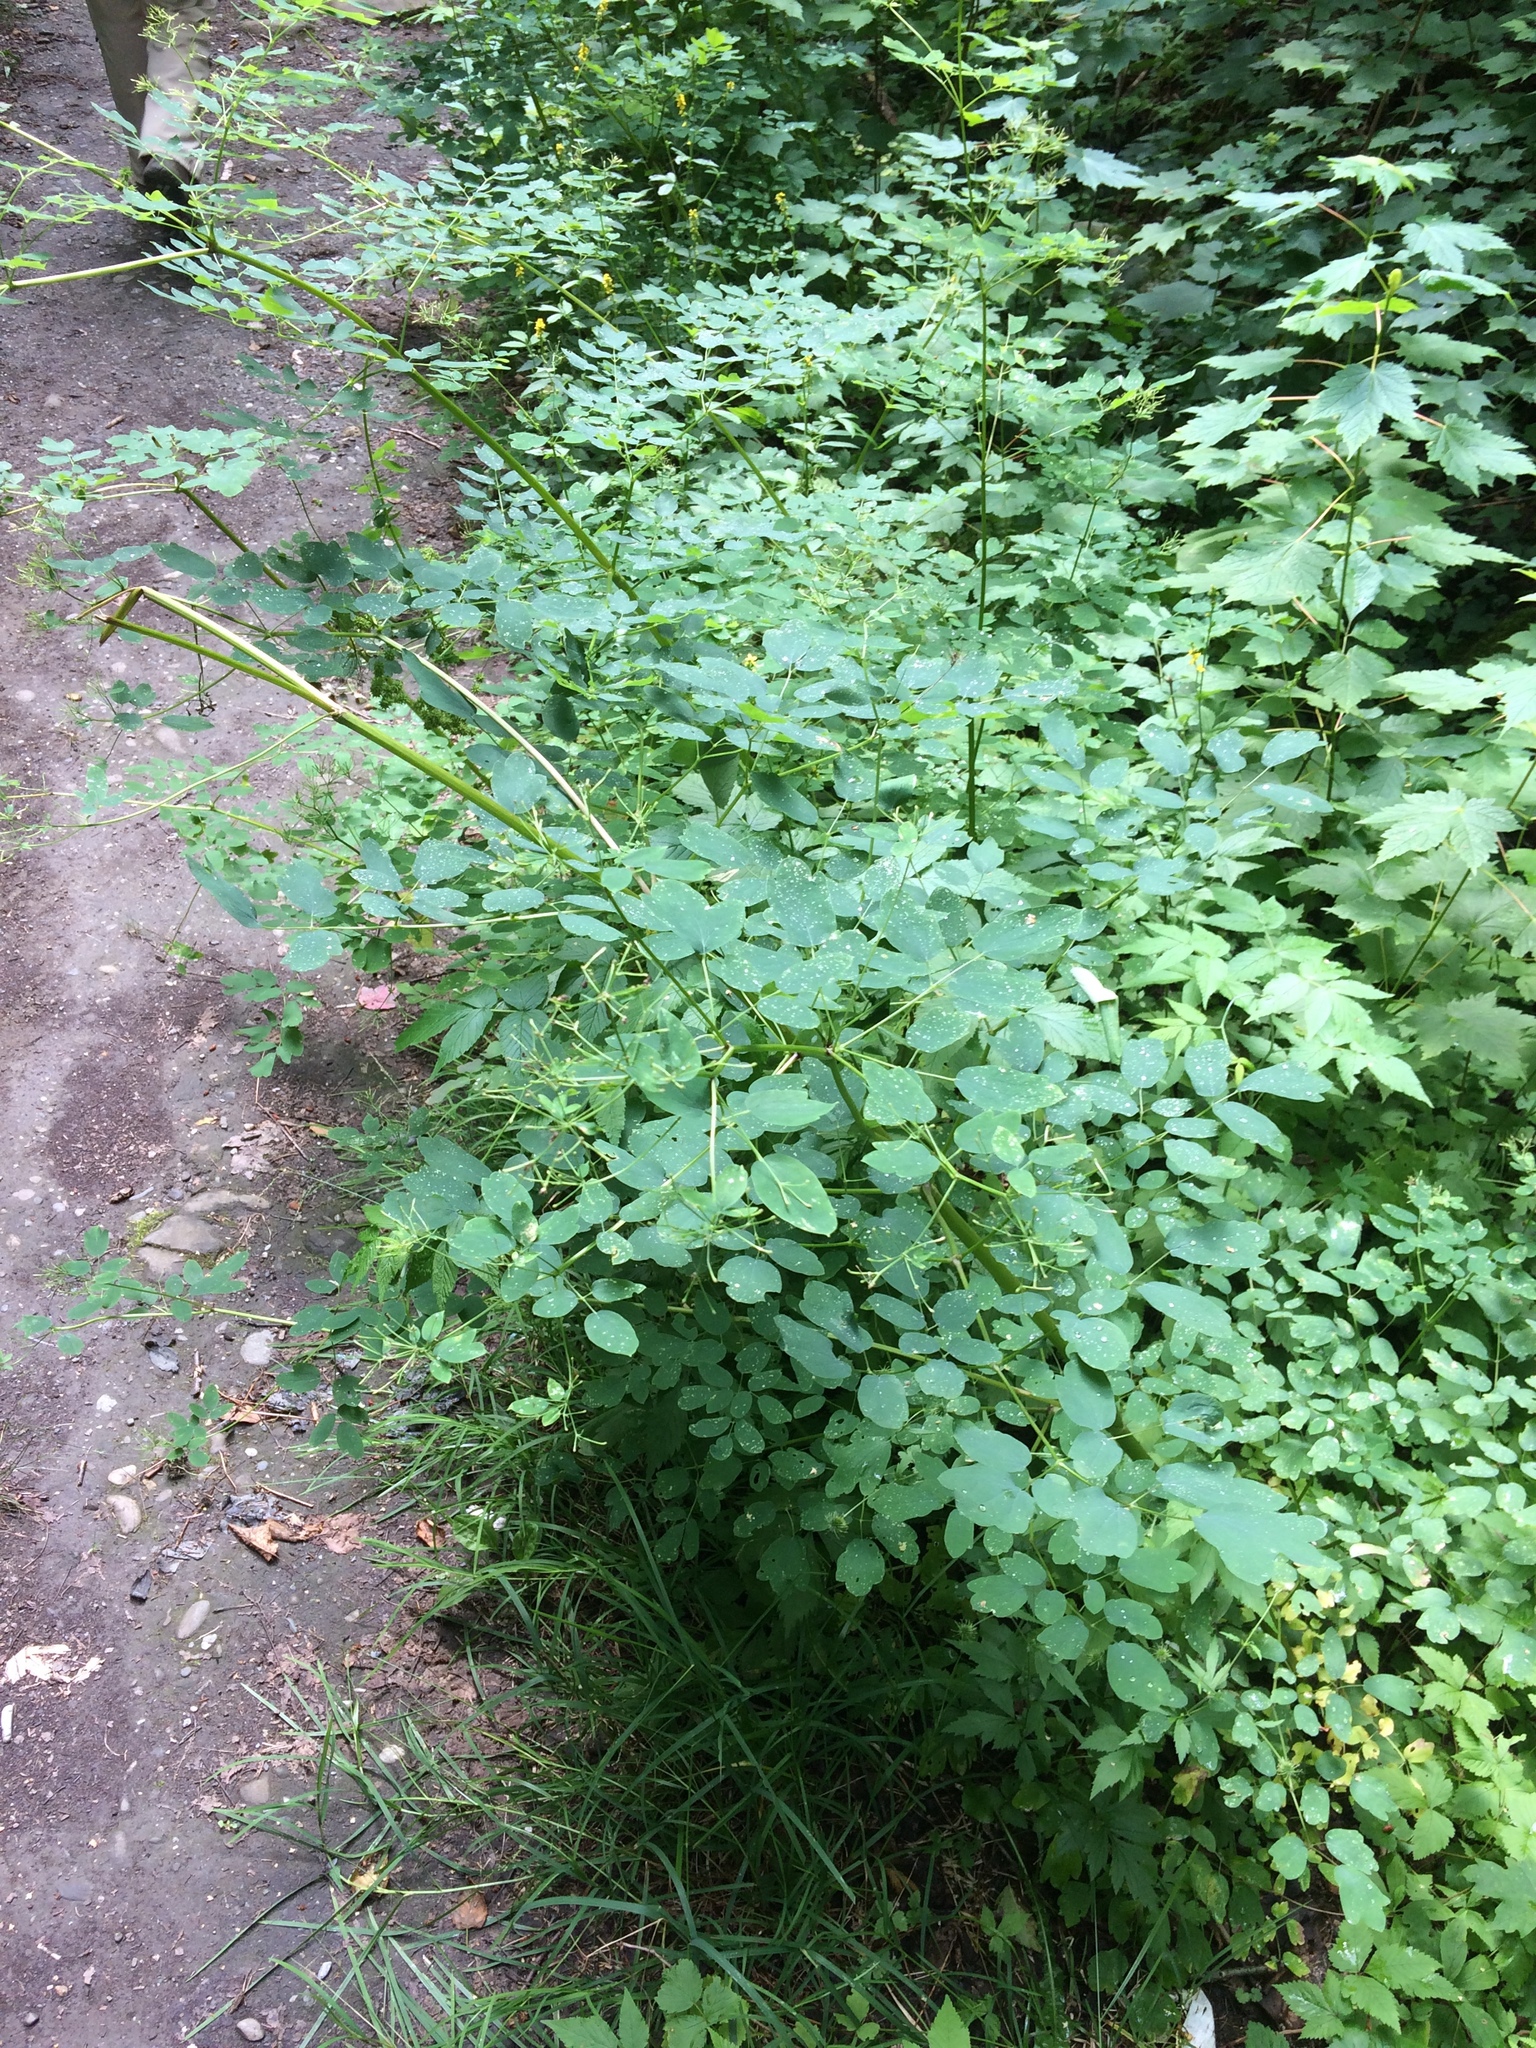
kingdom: Plantae
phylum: Tracheophyta
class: Magnoliopsida
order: Ranunculales
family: Ranunculaceae
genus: Thalictrum
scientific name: Thalictrum pubescens
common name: King-of-the-meadow
